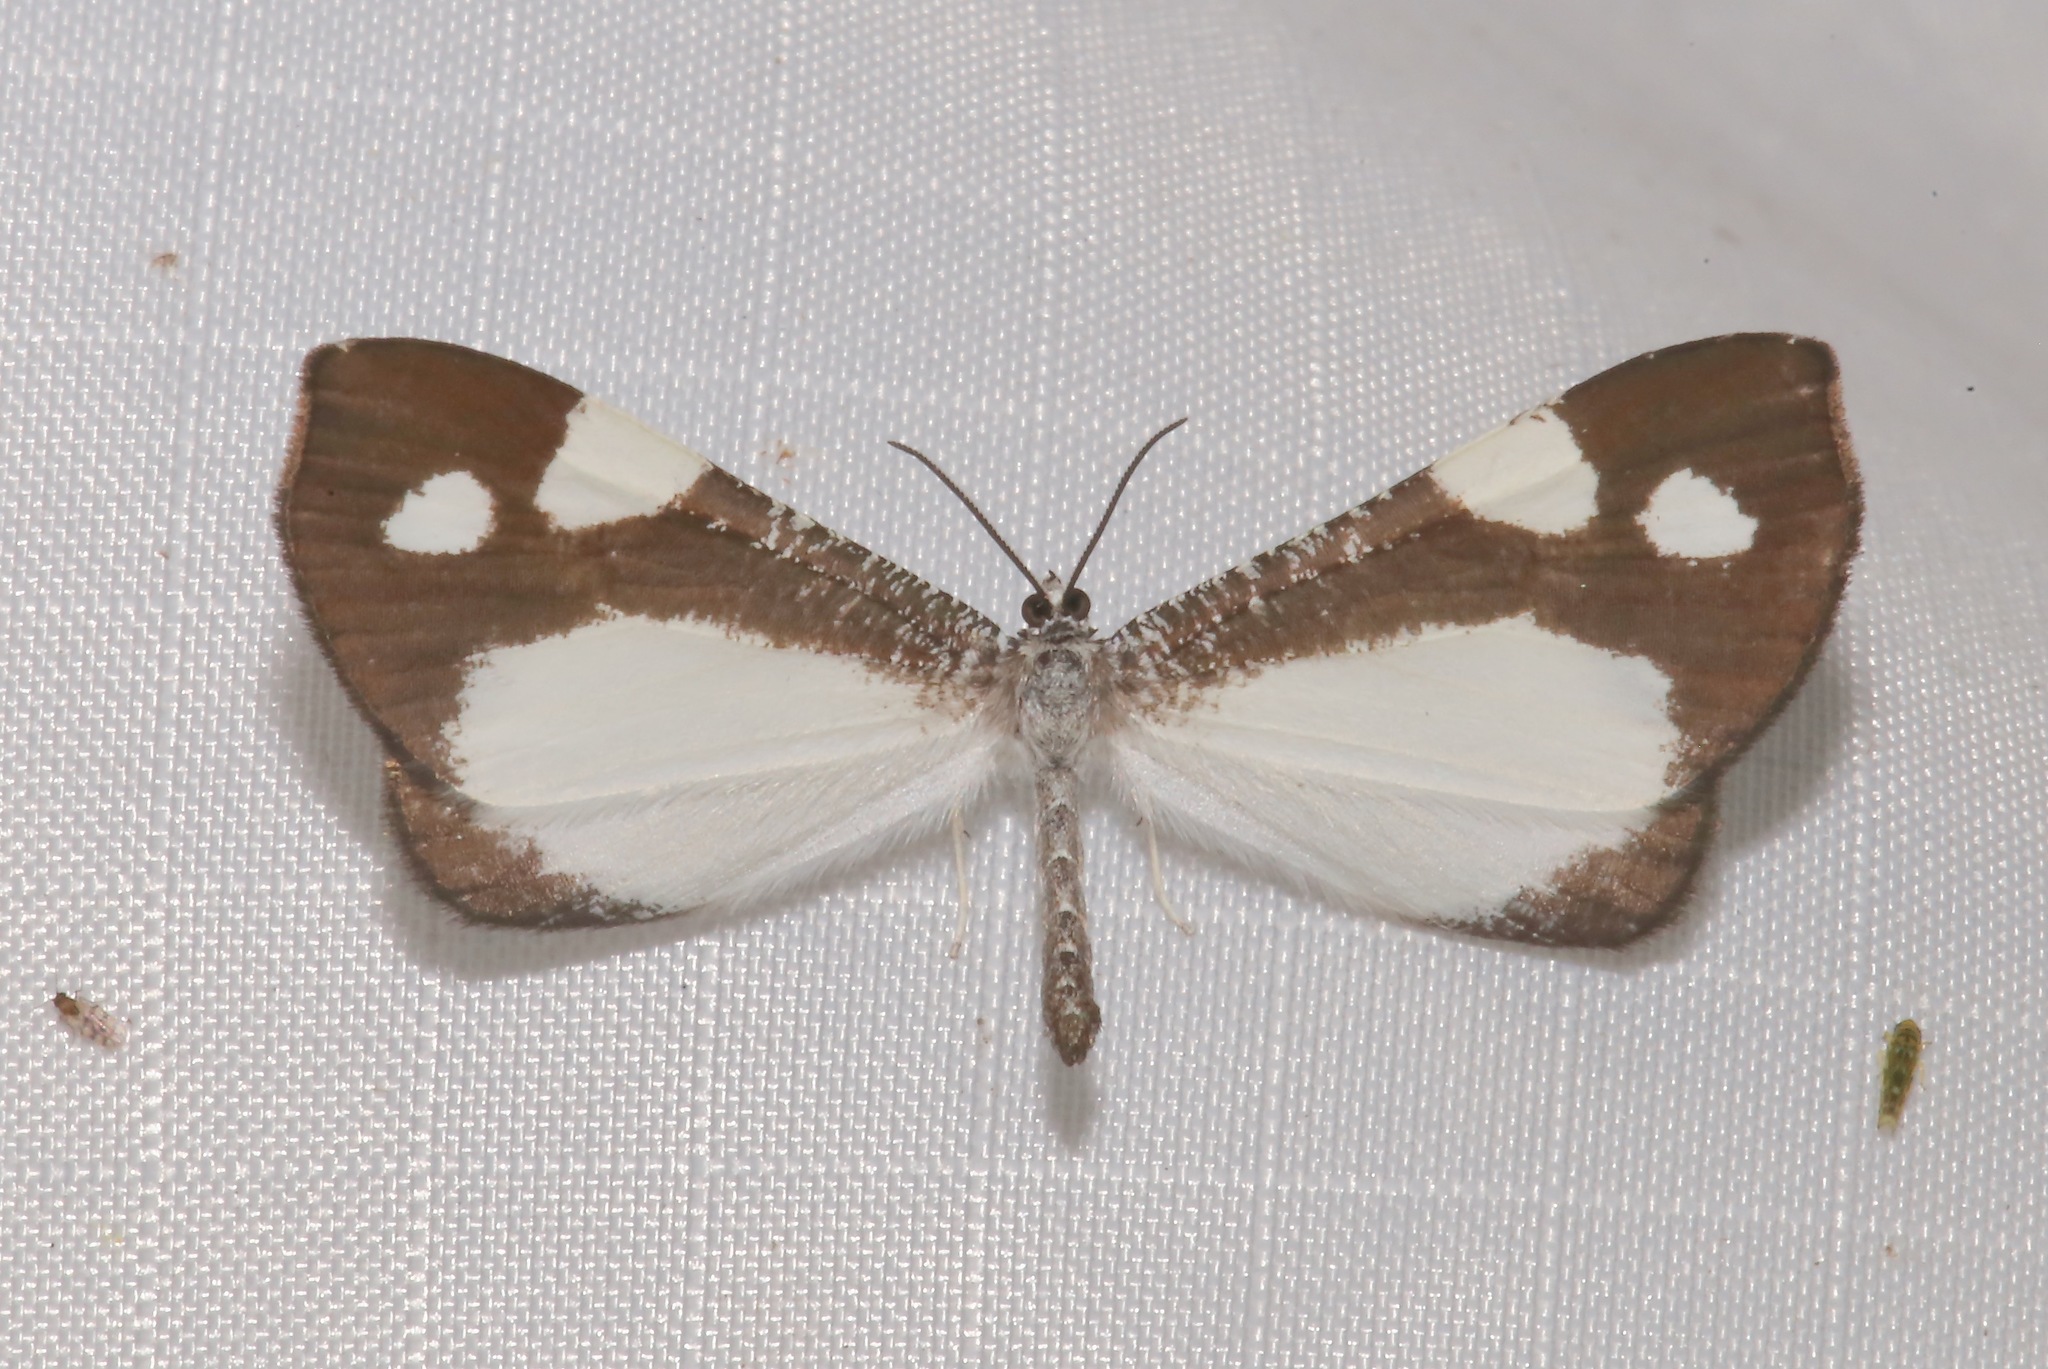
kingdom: Animalia
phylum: Arthropoda
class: Insecta
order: Lepidoptera
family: Hedylidae
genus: Macrosoma
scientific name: Macrosoma leucoplethes
